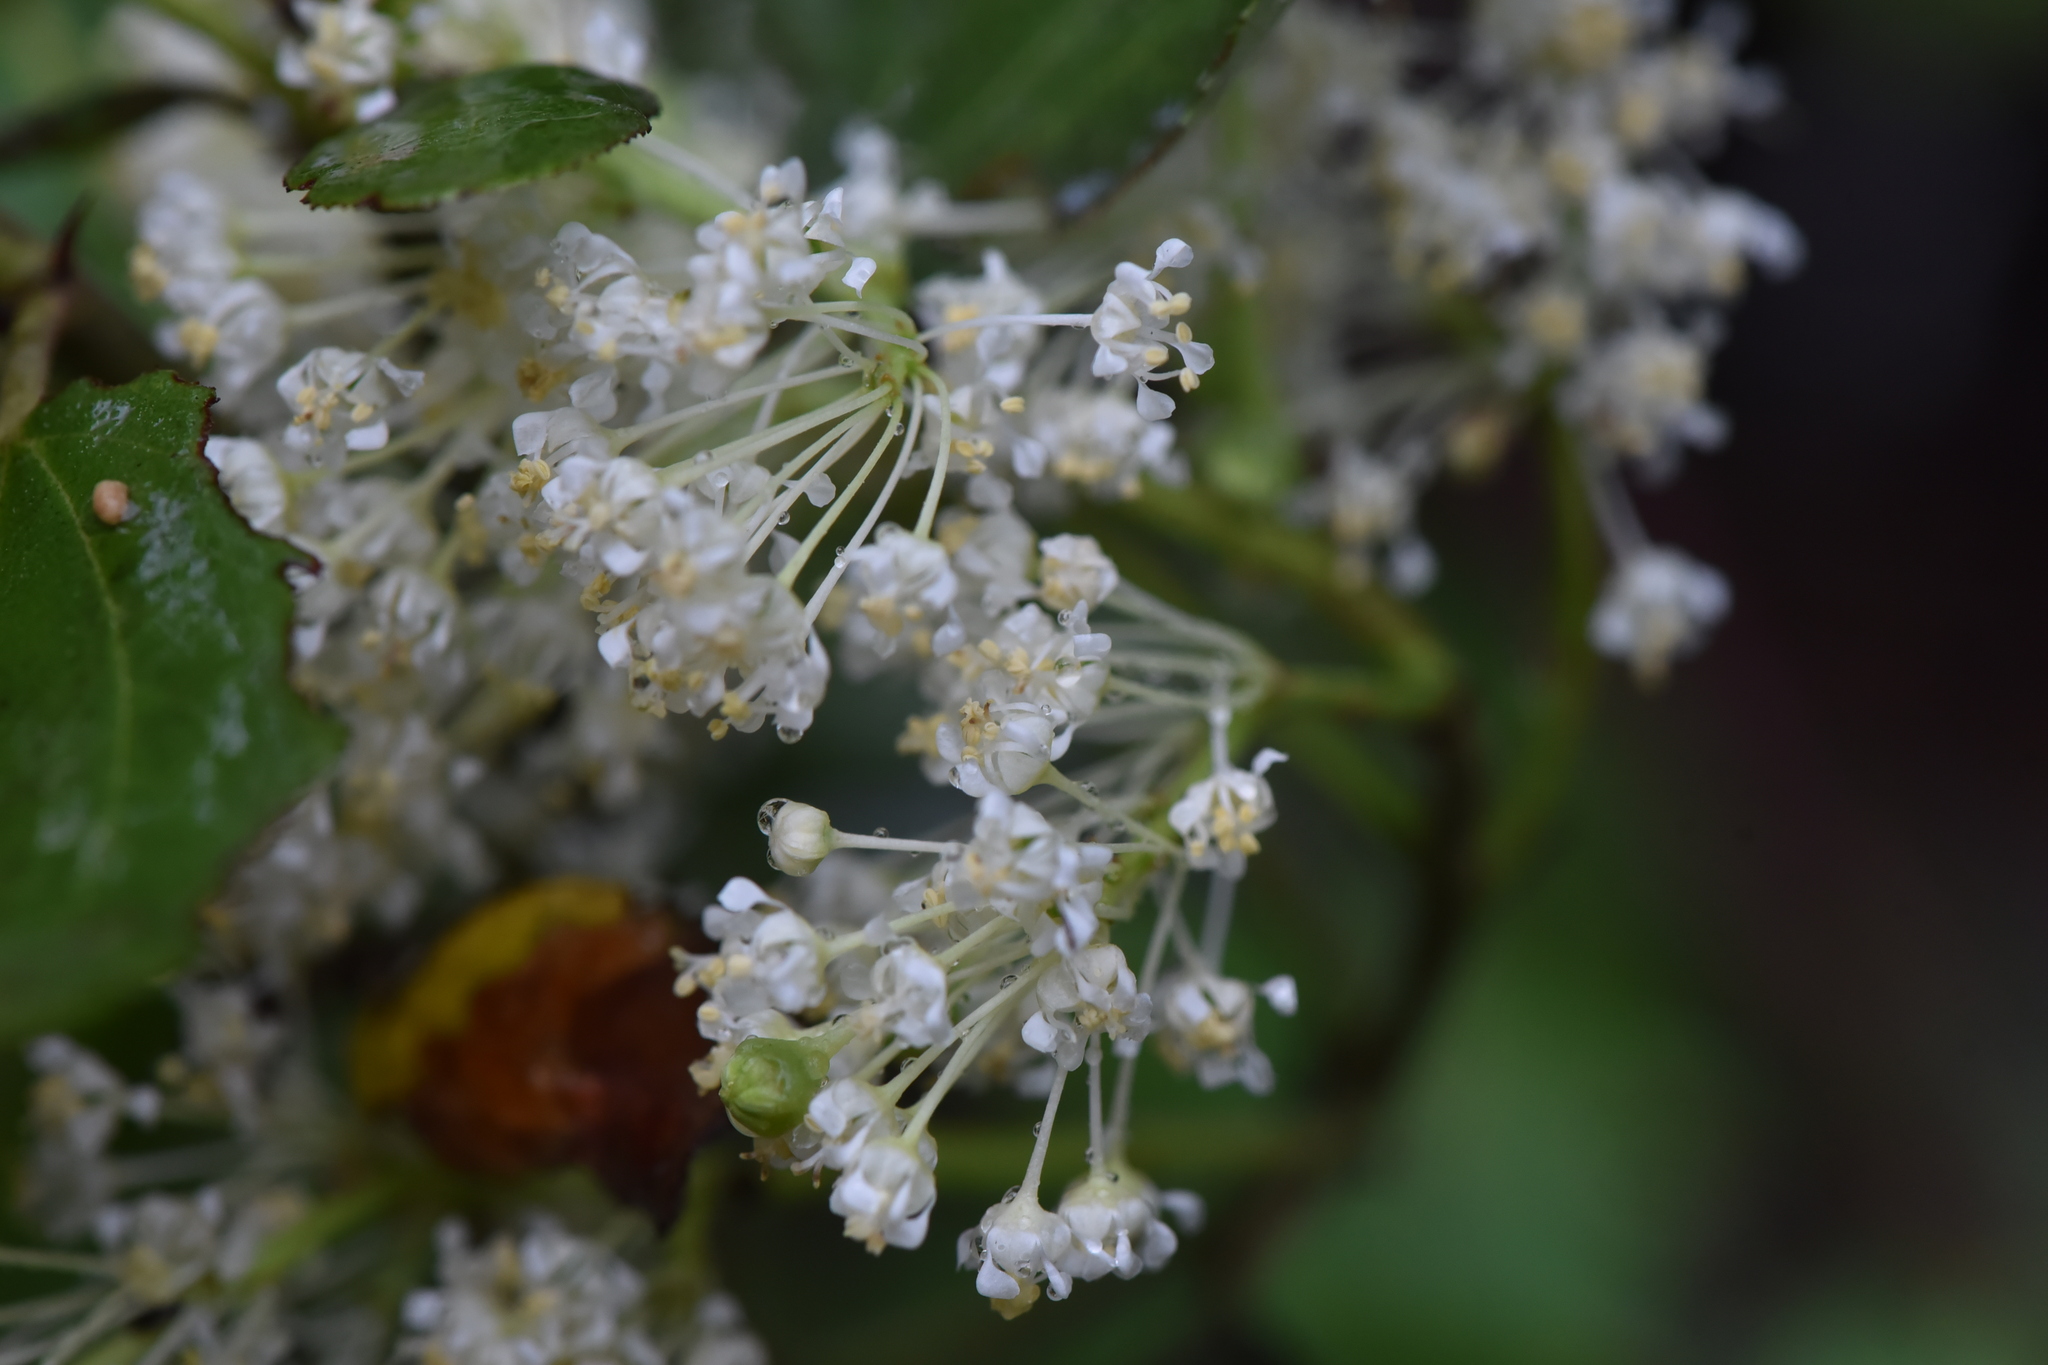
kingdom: Plantae
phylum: Tracheophyta
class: Magnoliopsida
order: Rosales
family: Rhamnaceae
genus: Ceanothus
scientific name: Ceanothus velutinus
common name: Snowbrush
